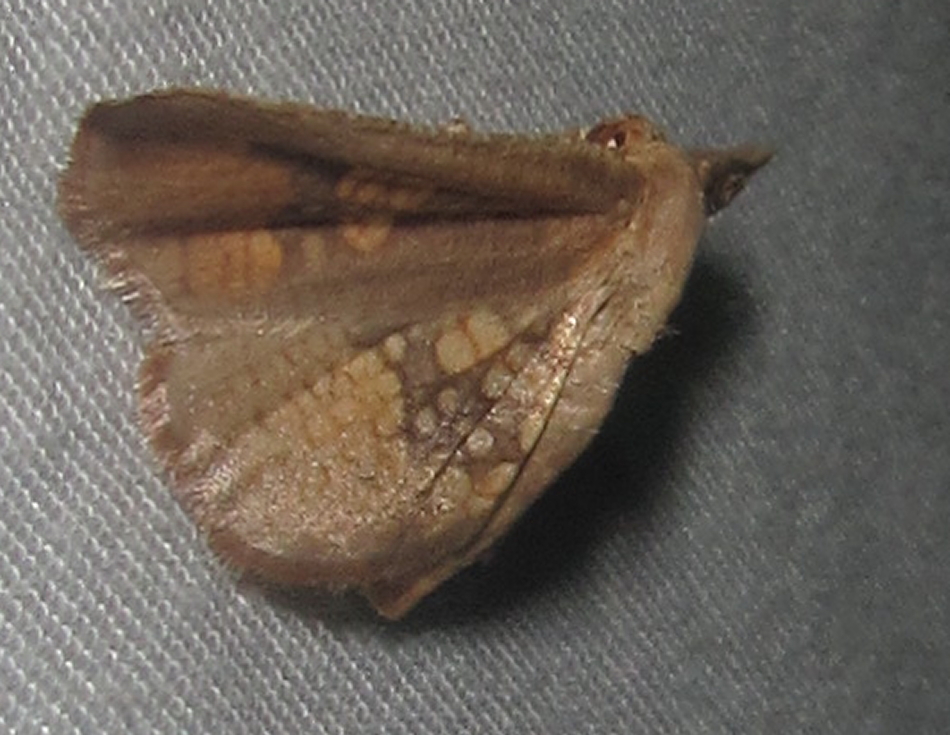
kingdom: Animalia
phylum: Arthropoda
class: Insecta
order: Lepidoptera
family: Thyrididae
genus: Cecidothyris
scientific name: Cecidothyris pexa
